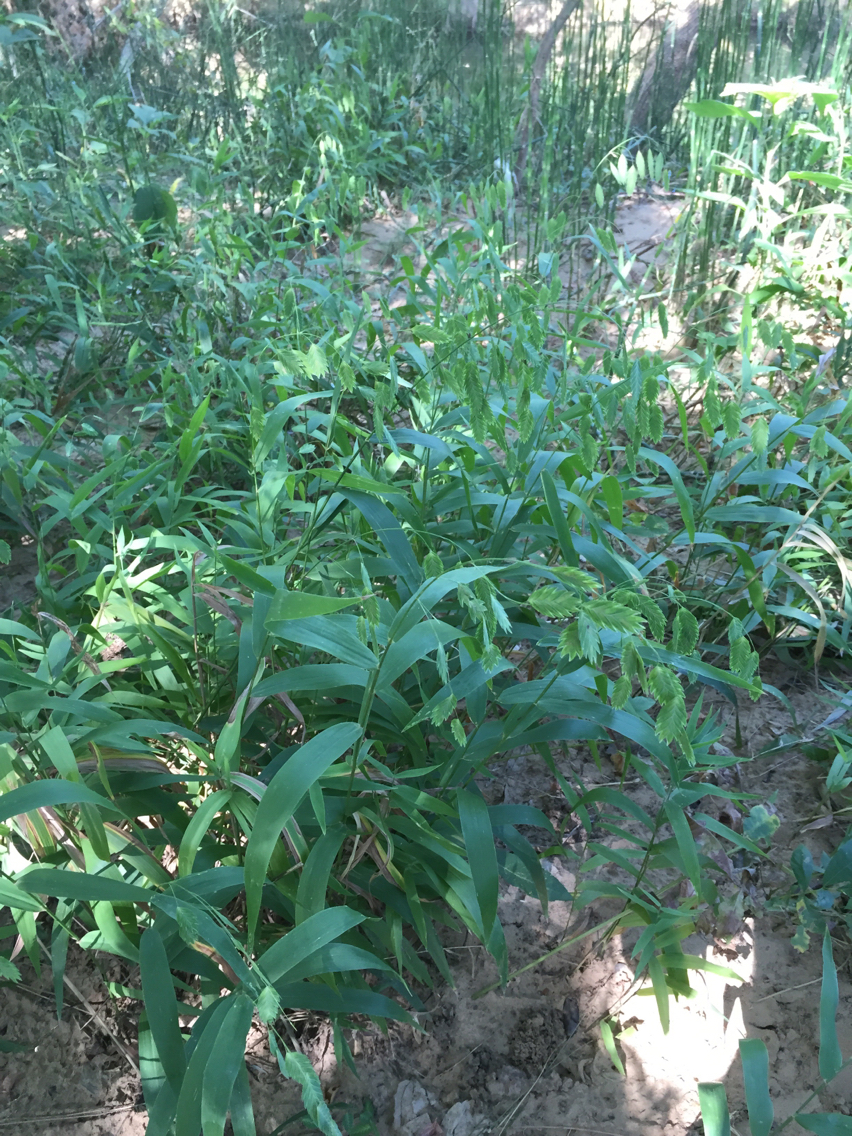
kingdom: Plantae
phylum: Tracheophyta
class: Liliopsida
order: Poales
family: Poaceae
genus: Chasmanthium
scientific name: Chasmanthium latifolium
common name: Broad-leaved chasmanthium
